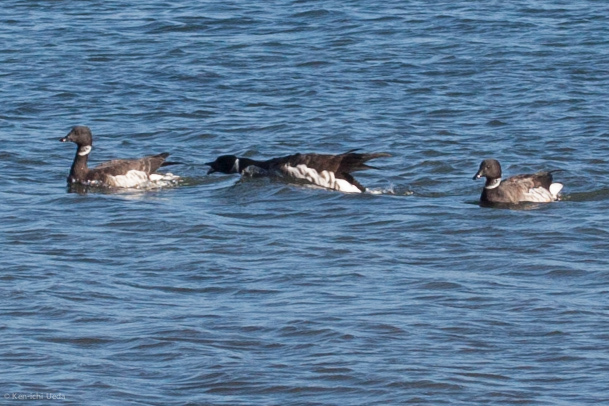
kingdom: Animalia
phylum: Chordata
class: Aves
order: Anseriformes
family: Anatidae
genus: Branta
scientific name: Branta bernicla
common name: Brant goose
